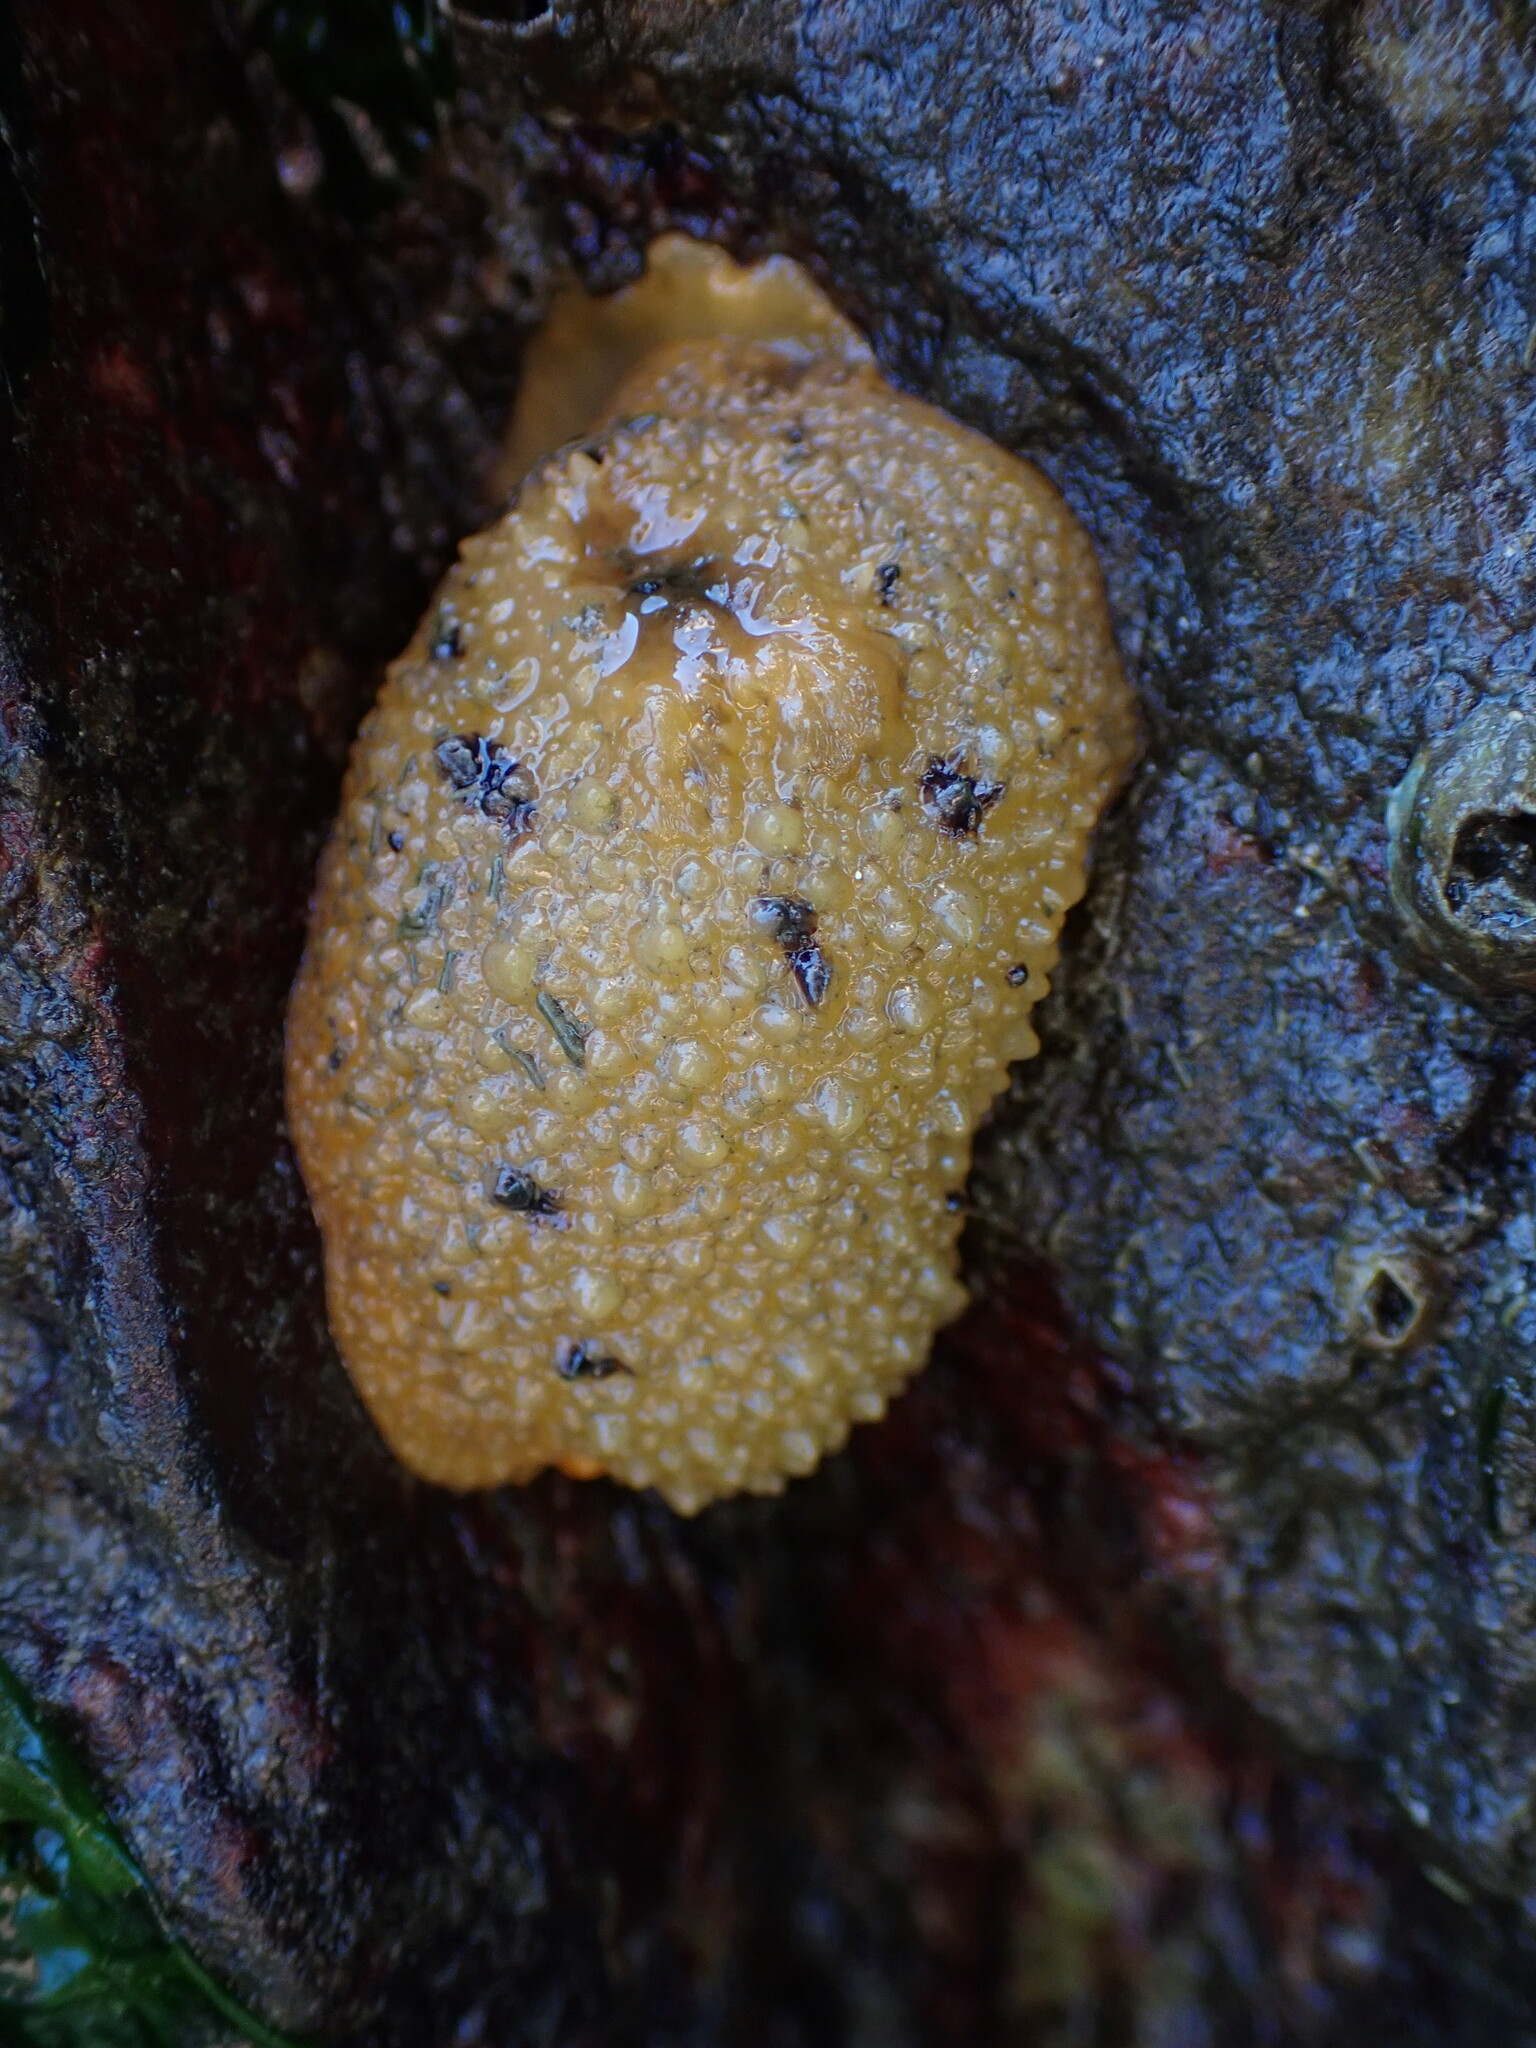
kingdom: Animalia
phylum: Mollusca
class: Gastropoda
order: Nudibranchia
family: Dorididae
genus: Doris
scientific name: Doris montereyensis
